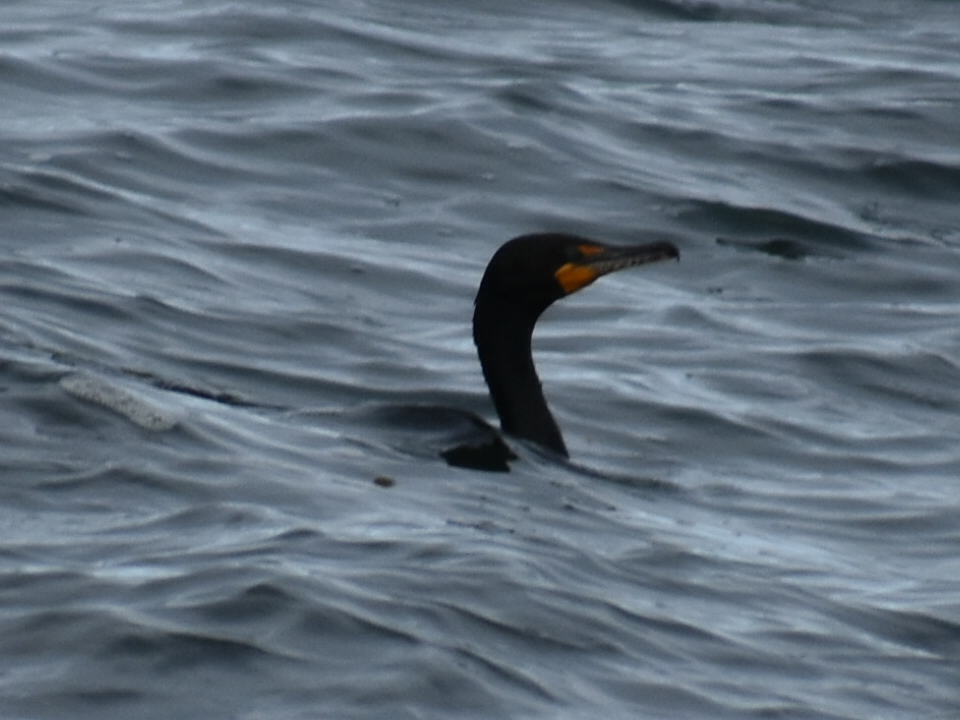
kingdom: Animalia
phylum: Chordata
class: Aves
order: Suliformes
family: Phalacrocoracidae
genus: Phalacrocorax
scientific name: Phalacrocorax auritus
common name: Double-crested cormorant
